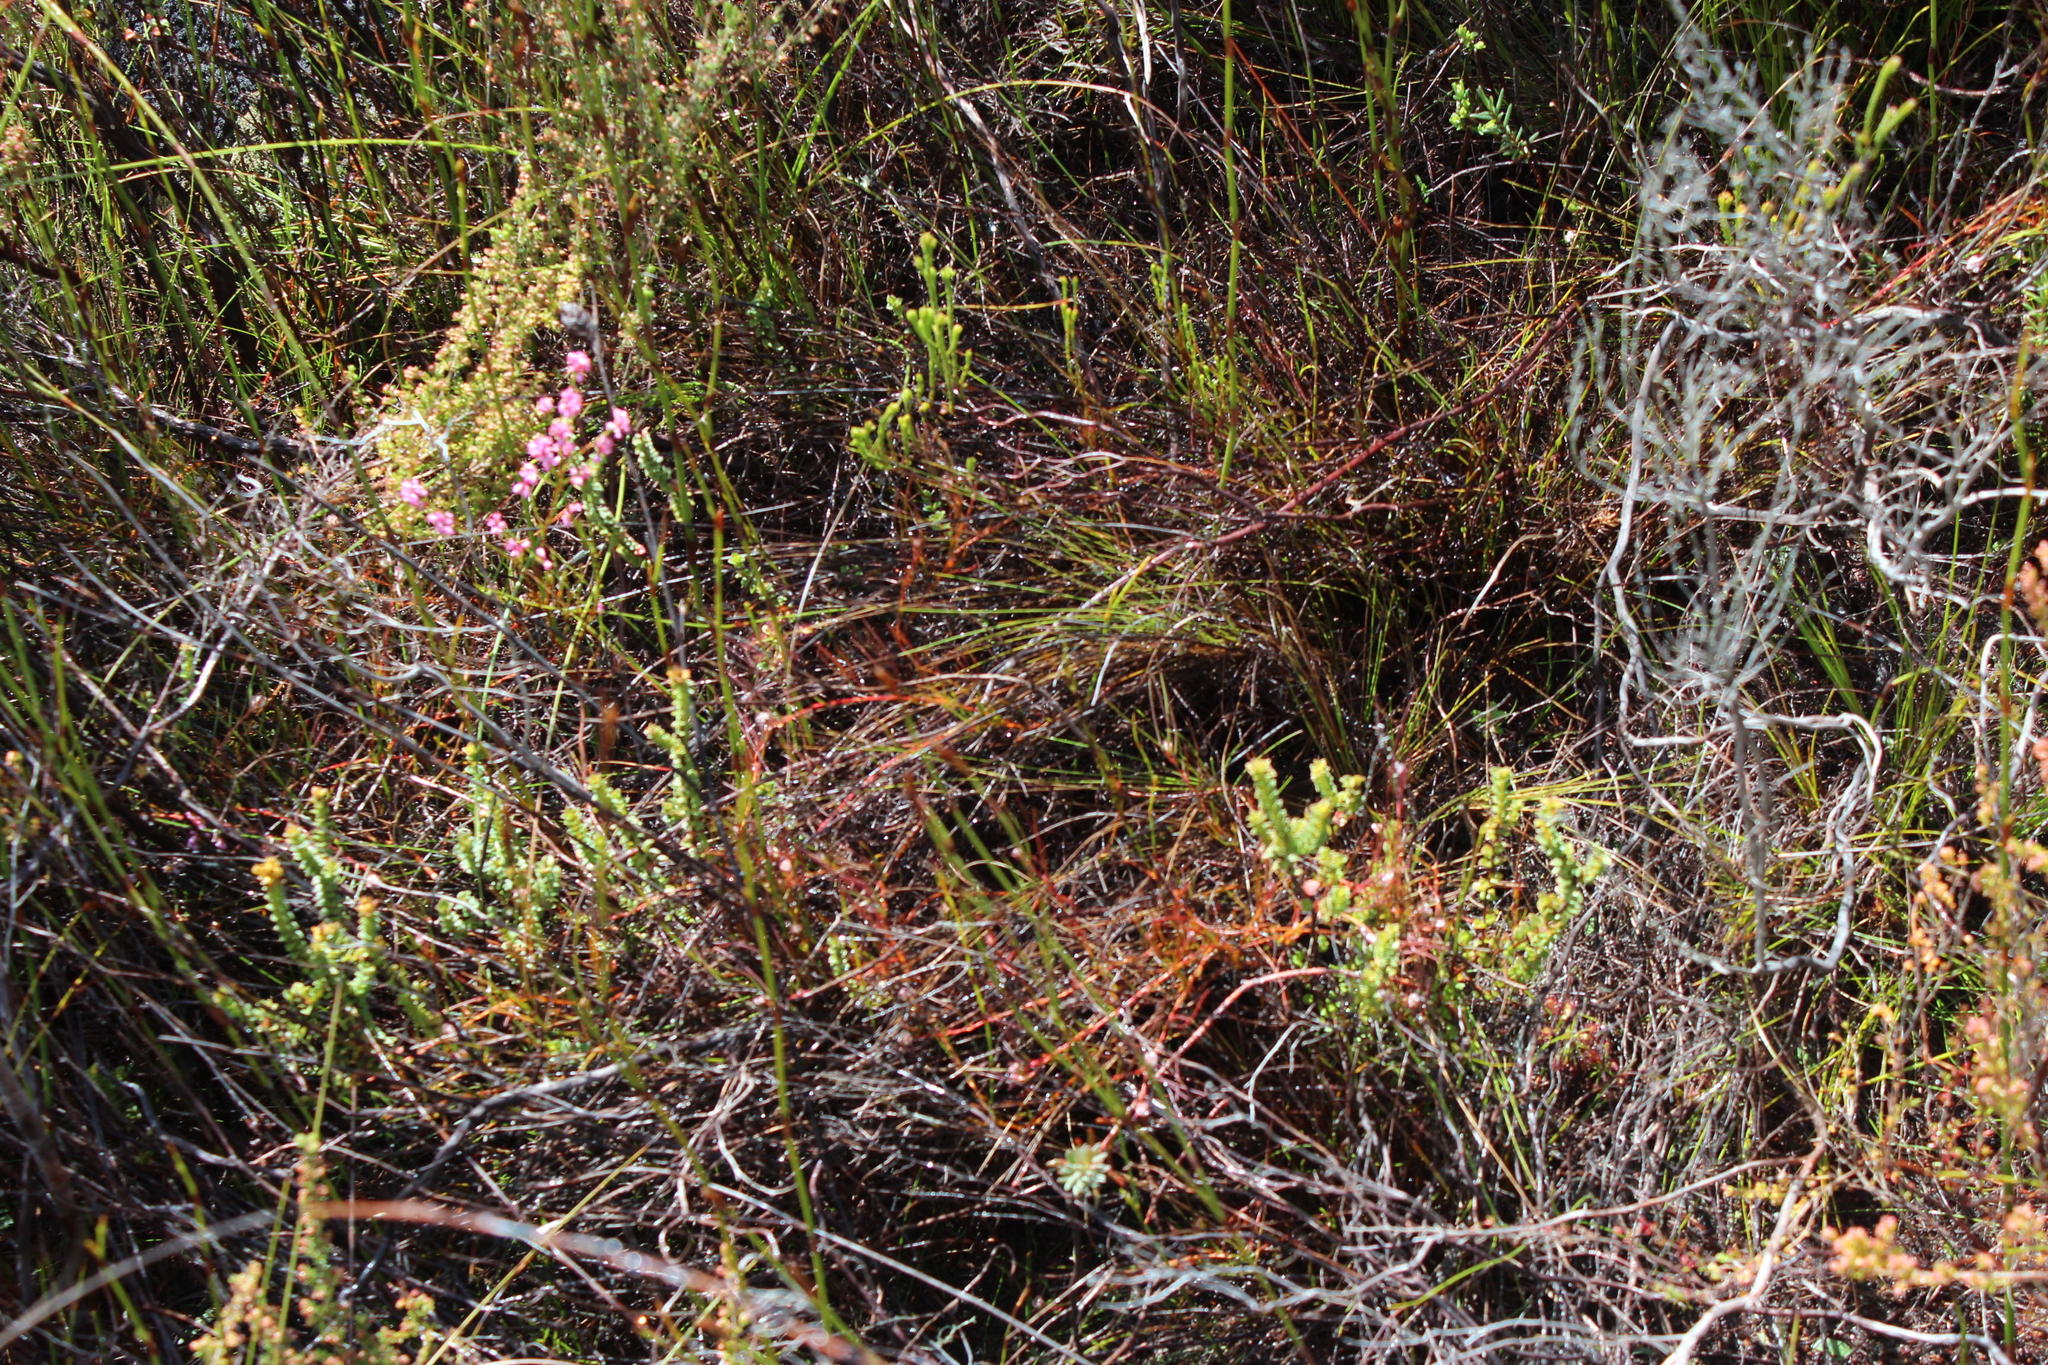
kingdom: Plantae
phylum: Tracheophyta
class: Magnoliopsida
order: Proteales
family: Proteaceae
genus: Serruria
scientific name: Serruria rebeloi
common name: Clandestine spiderhead
